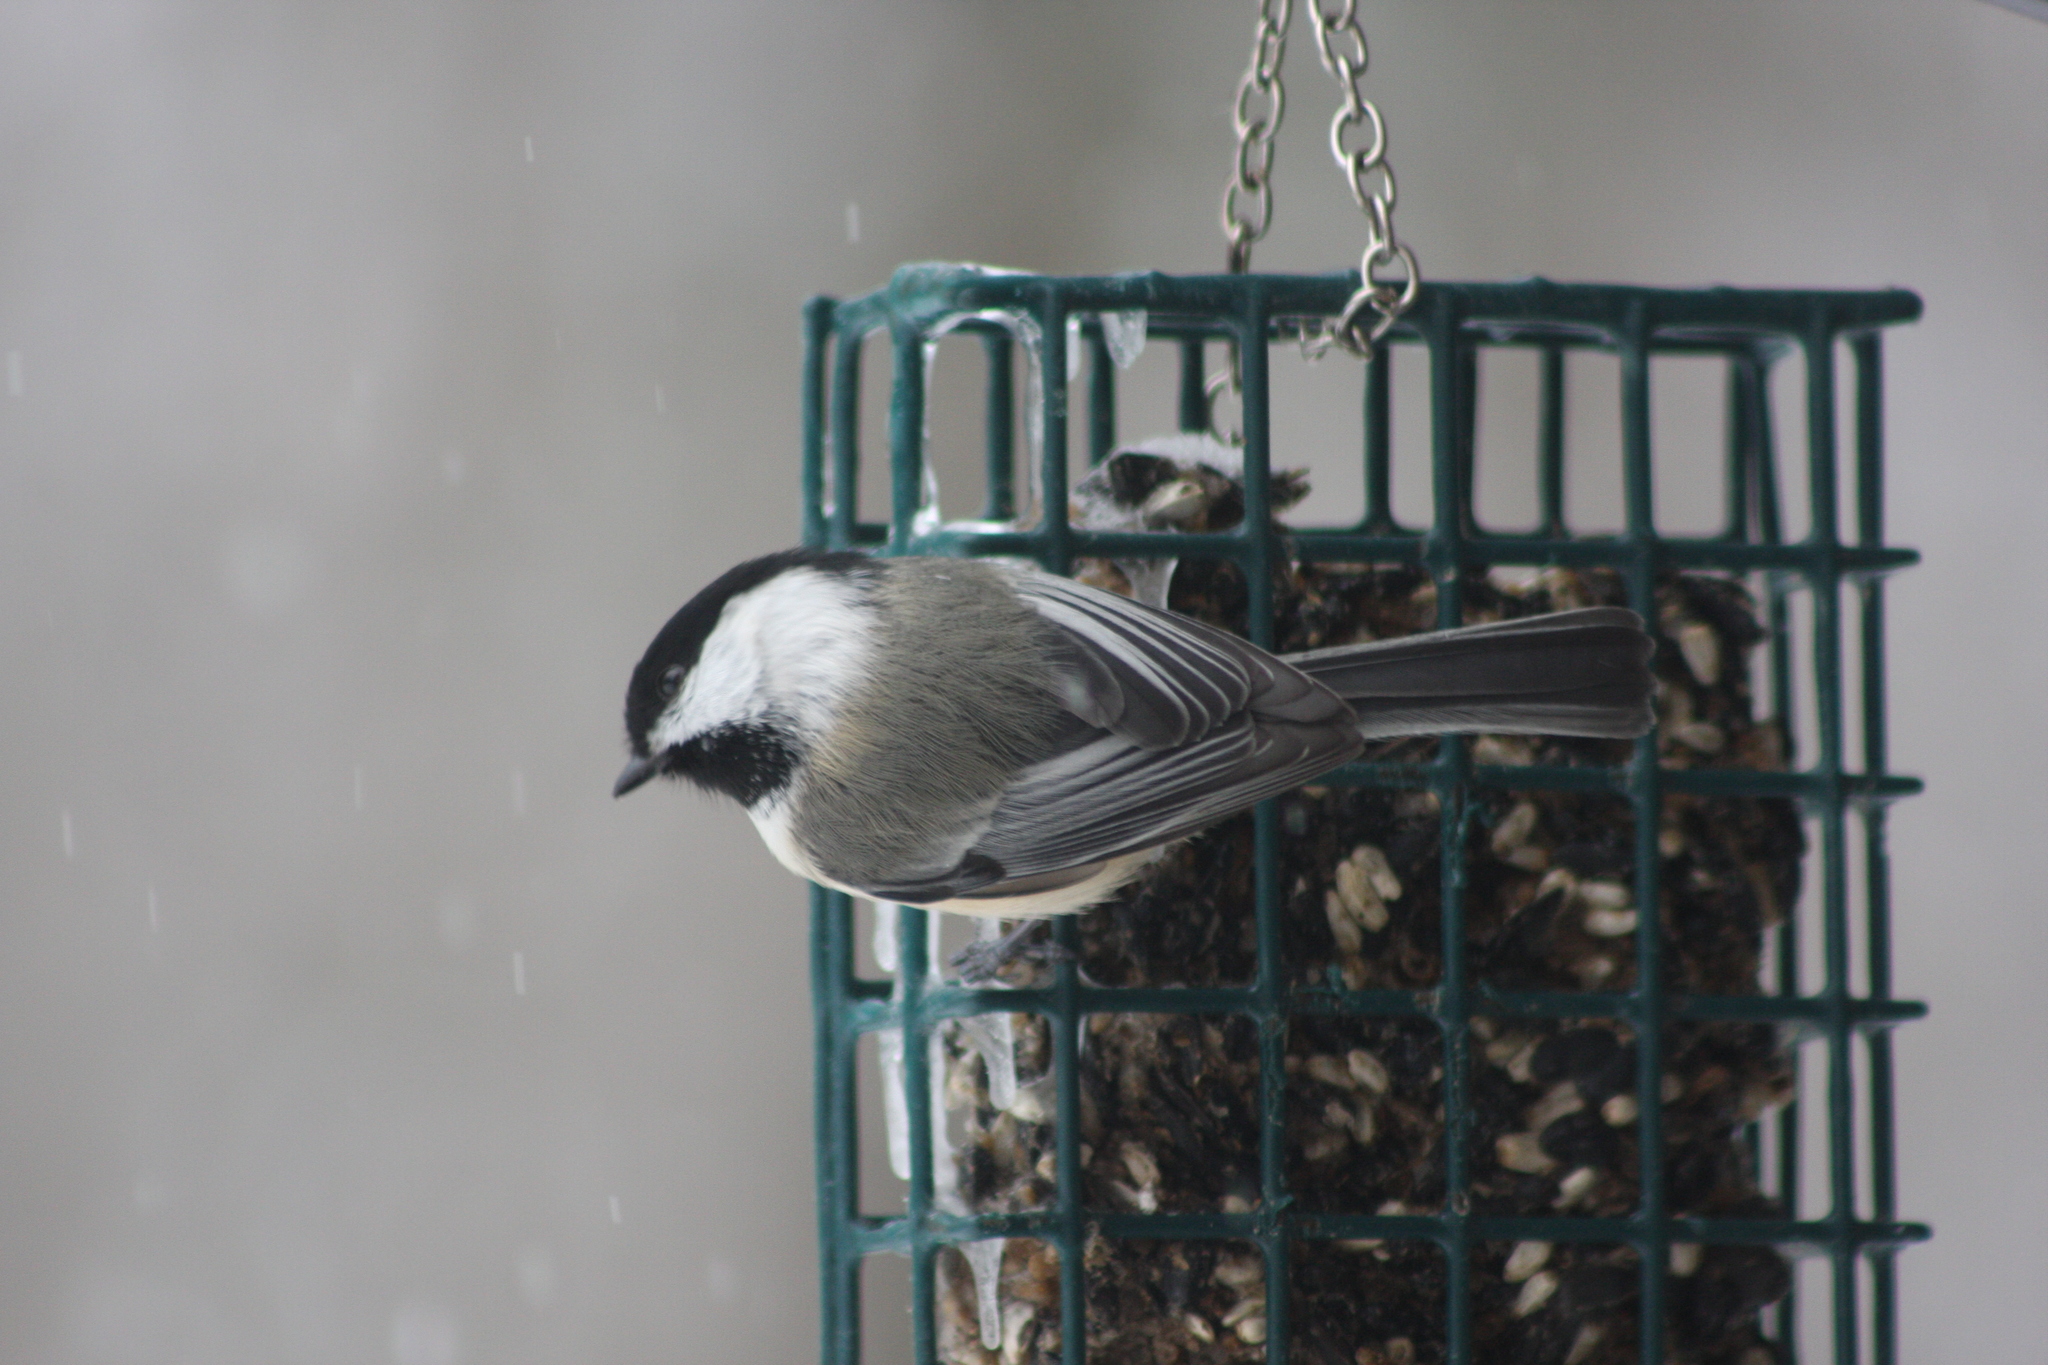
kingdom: Animalia
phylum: Chordata
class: Aves
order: Passeriformes
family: Paridae
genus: Poecile
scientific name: Poecile atricapillus
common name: Black-capped chickadee
